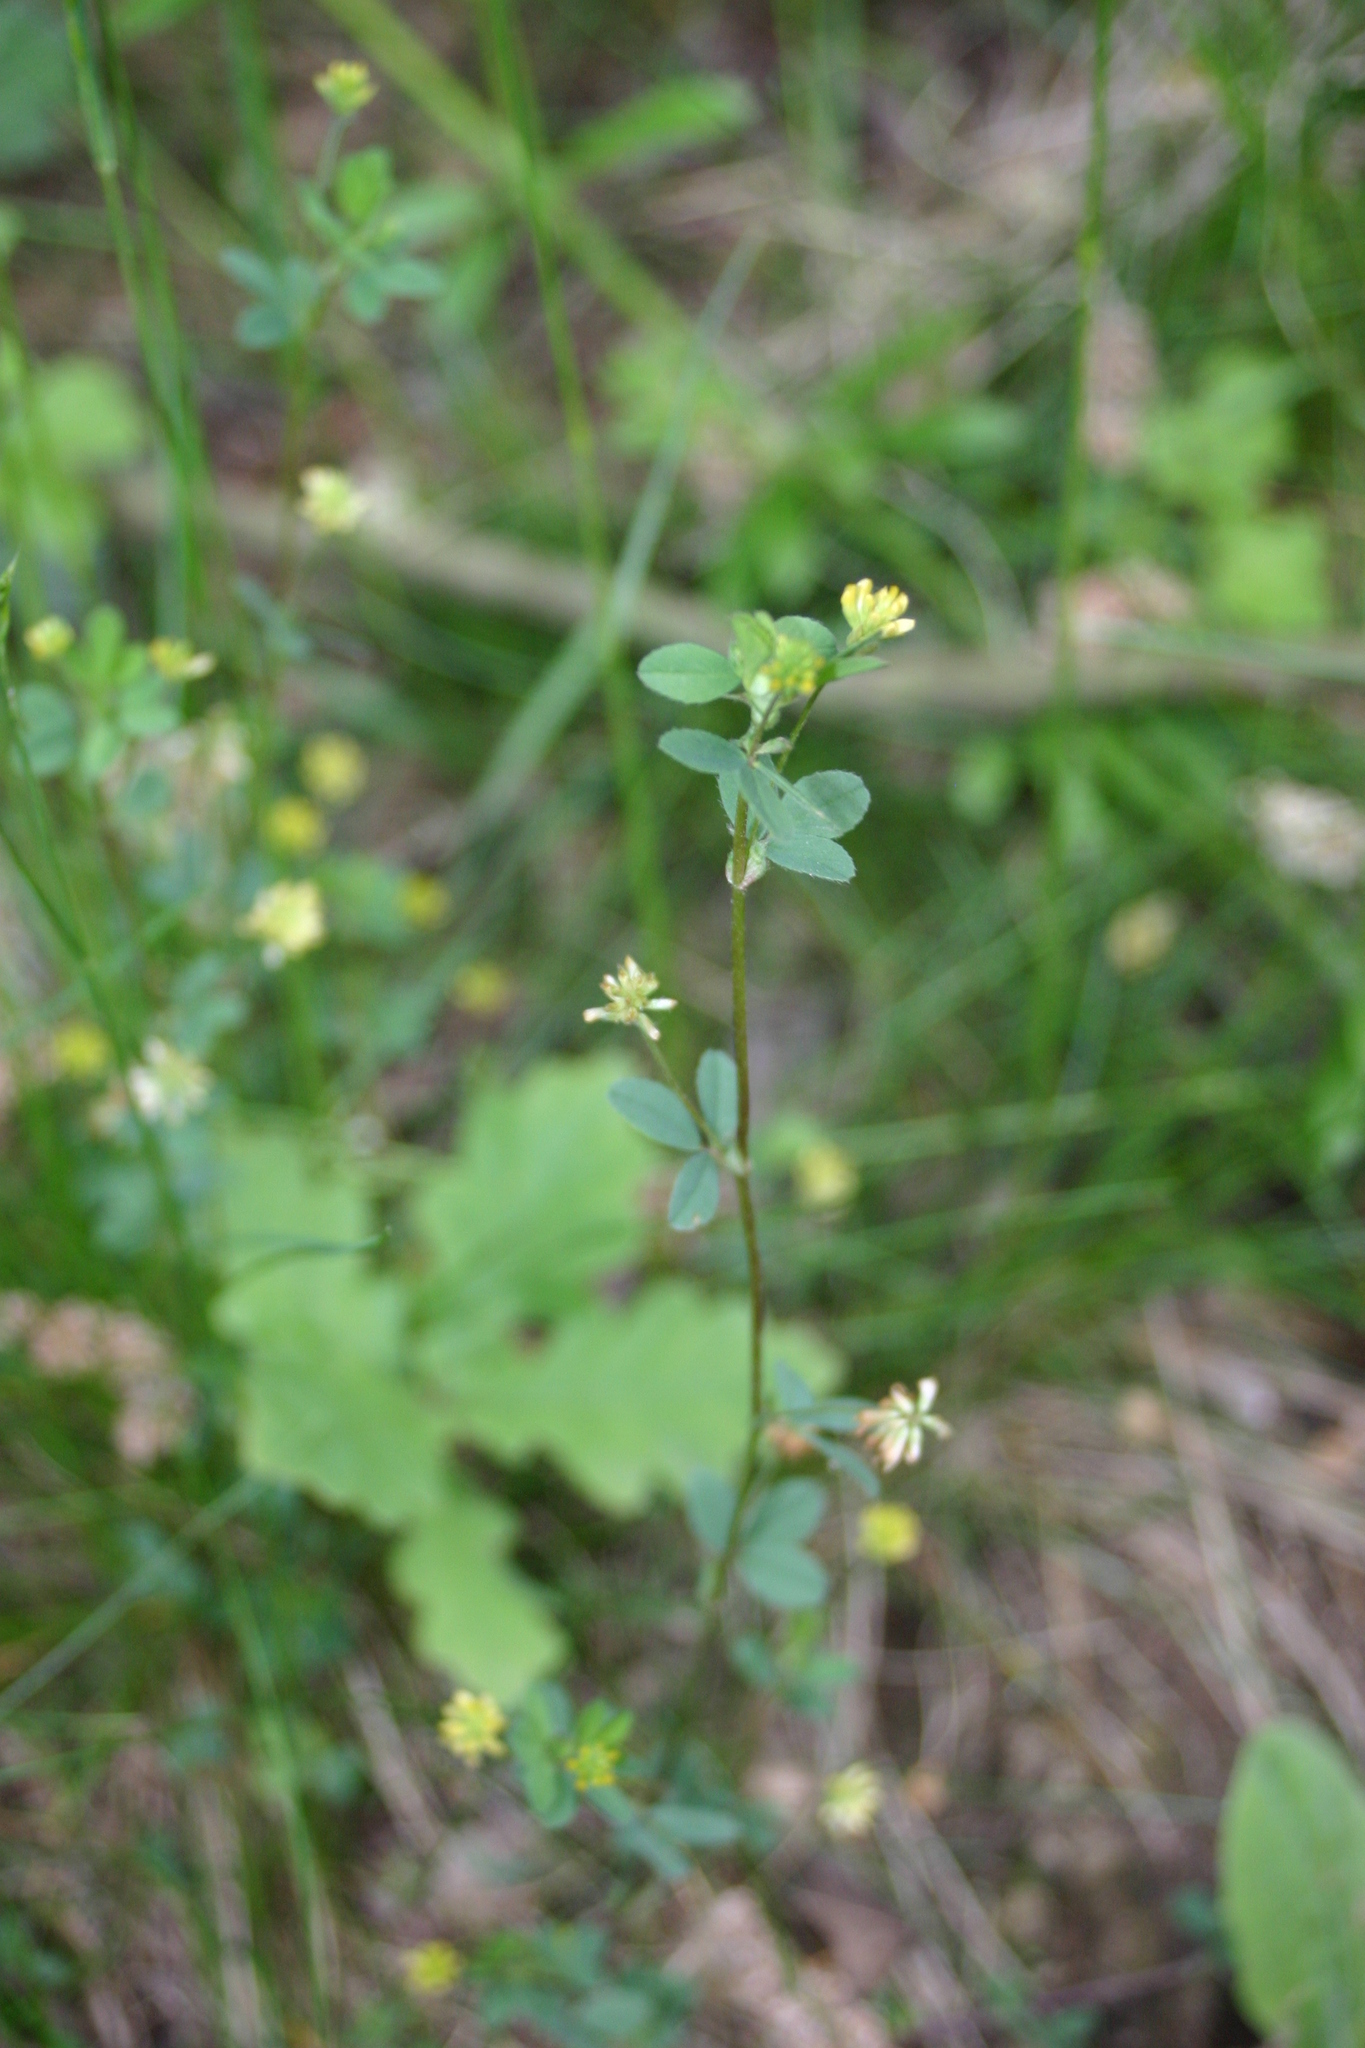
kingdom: Plantae
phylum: Tracheophyta
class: Magnoliopsida
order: Fabales
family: Fabaceae
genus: Trifolium
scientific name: Trifolium dubium
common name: Suckling clover
